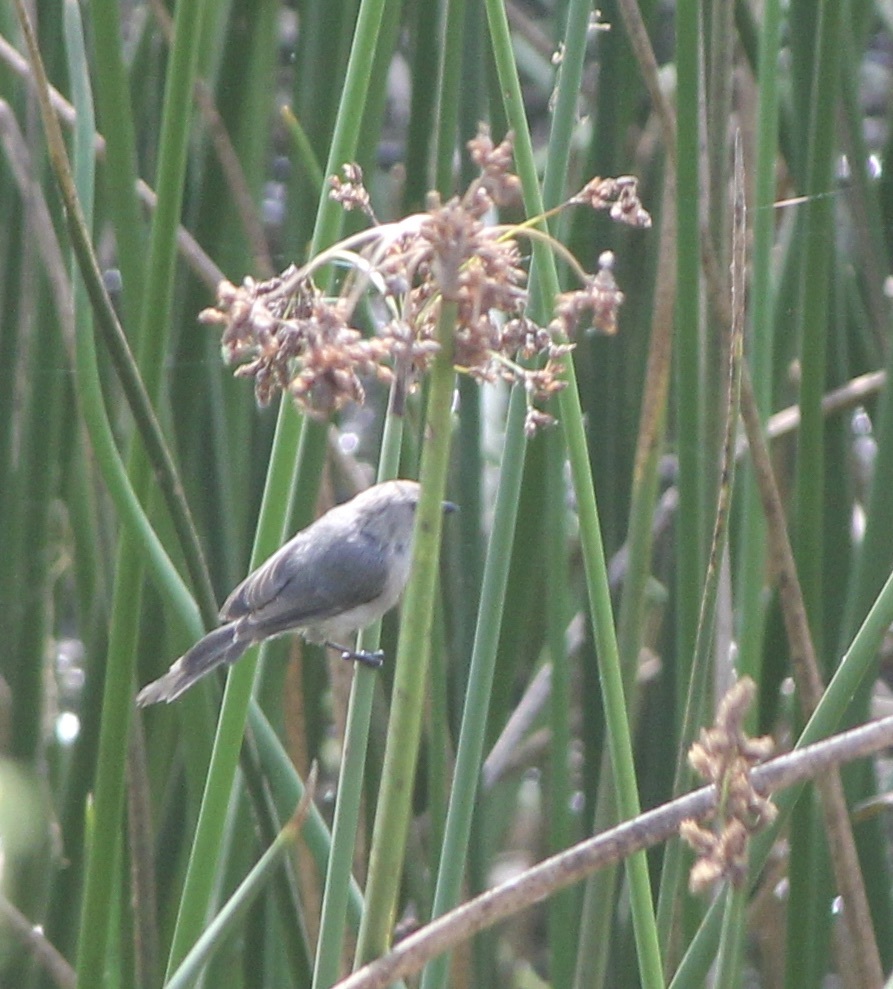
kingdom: Animalia
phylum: Chordata
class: Aves
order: Passeriformes
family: Aegithalidae
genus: Psaltriparus
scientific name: Psaltriparus minimus
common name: American bushtit
